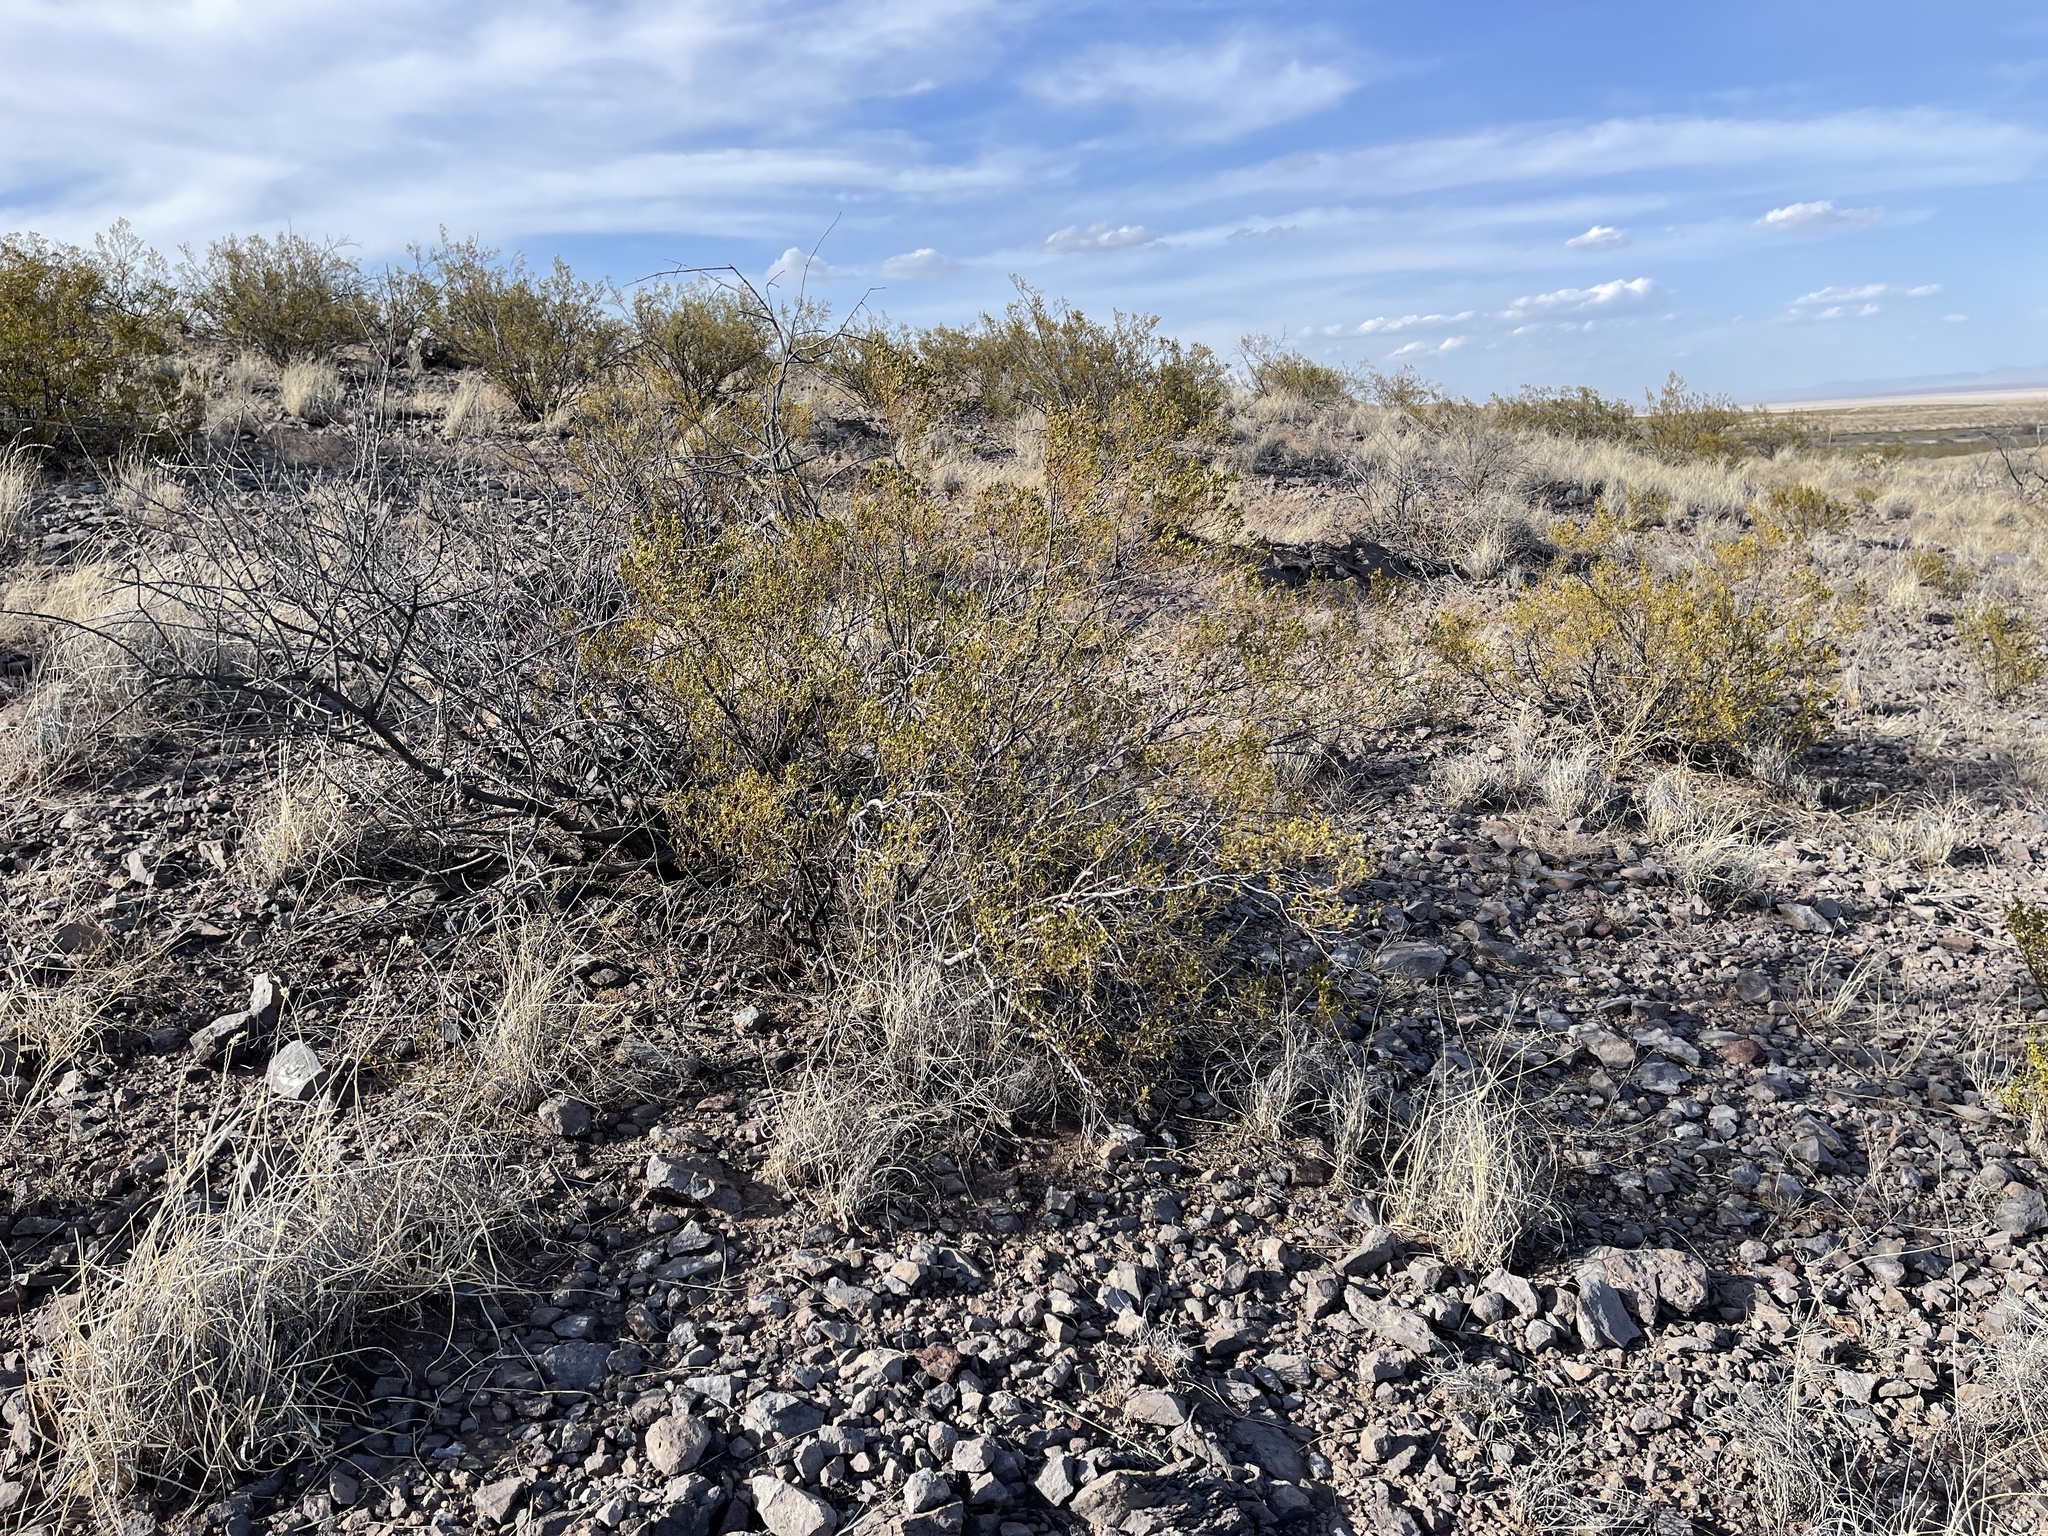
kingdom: Plantae
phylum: Tracheophyta
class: Magnoliopsida
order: Zygophyllales
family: Zygophyllaceae
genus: Larrea
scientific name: Larrea tridentata
